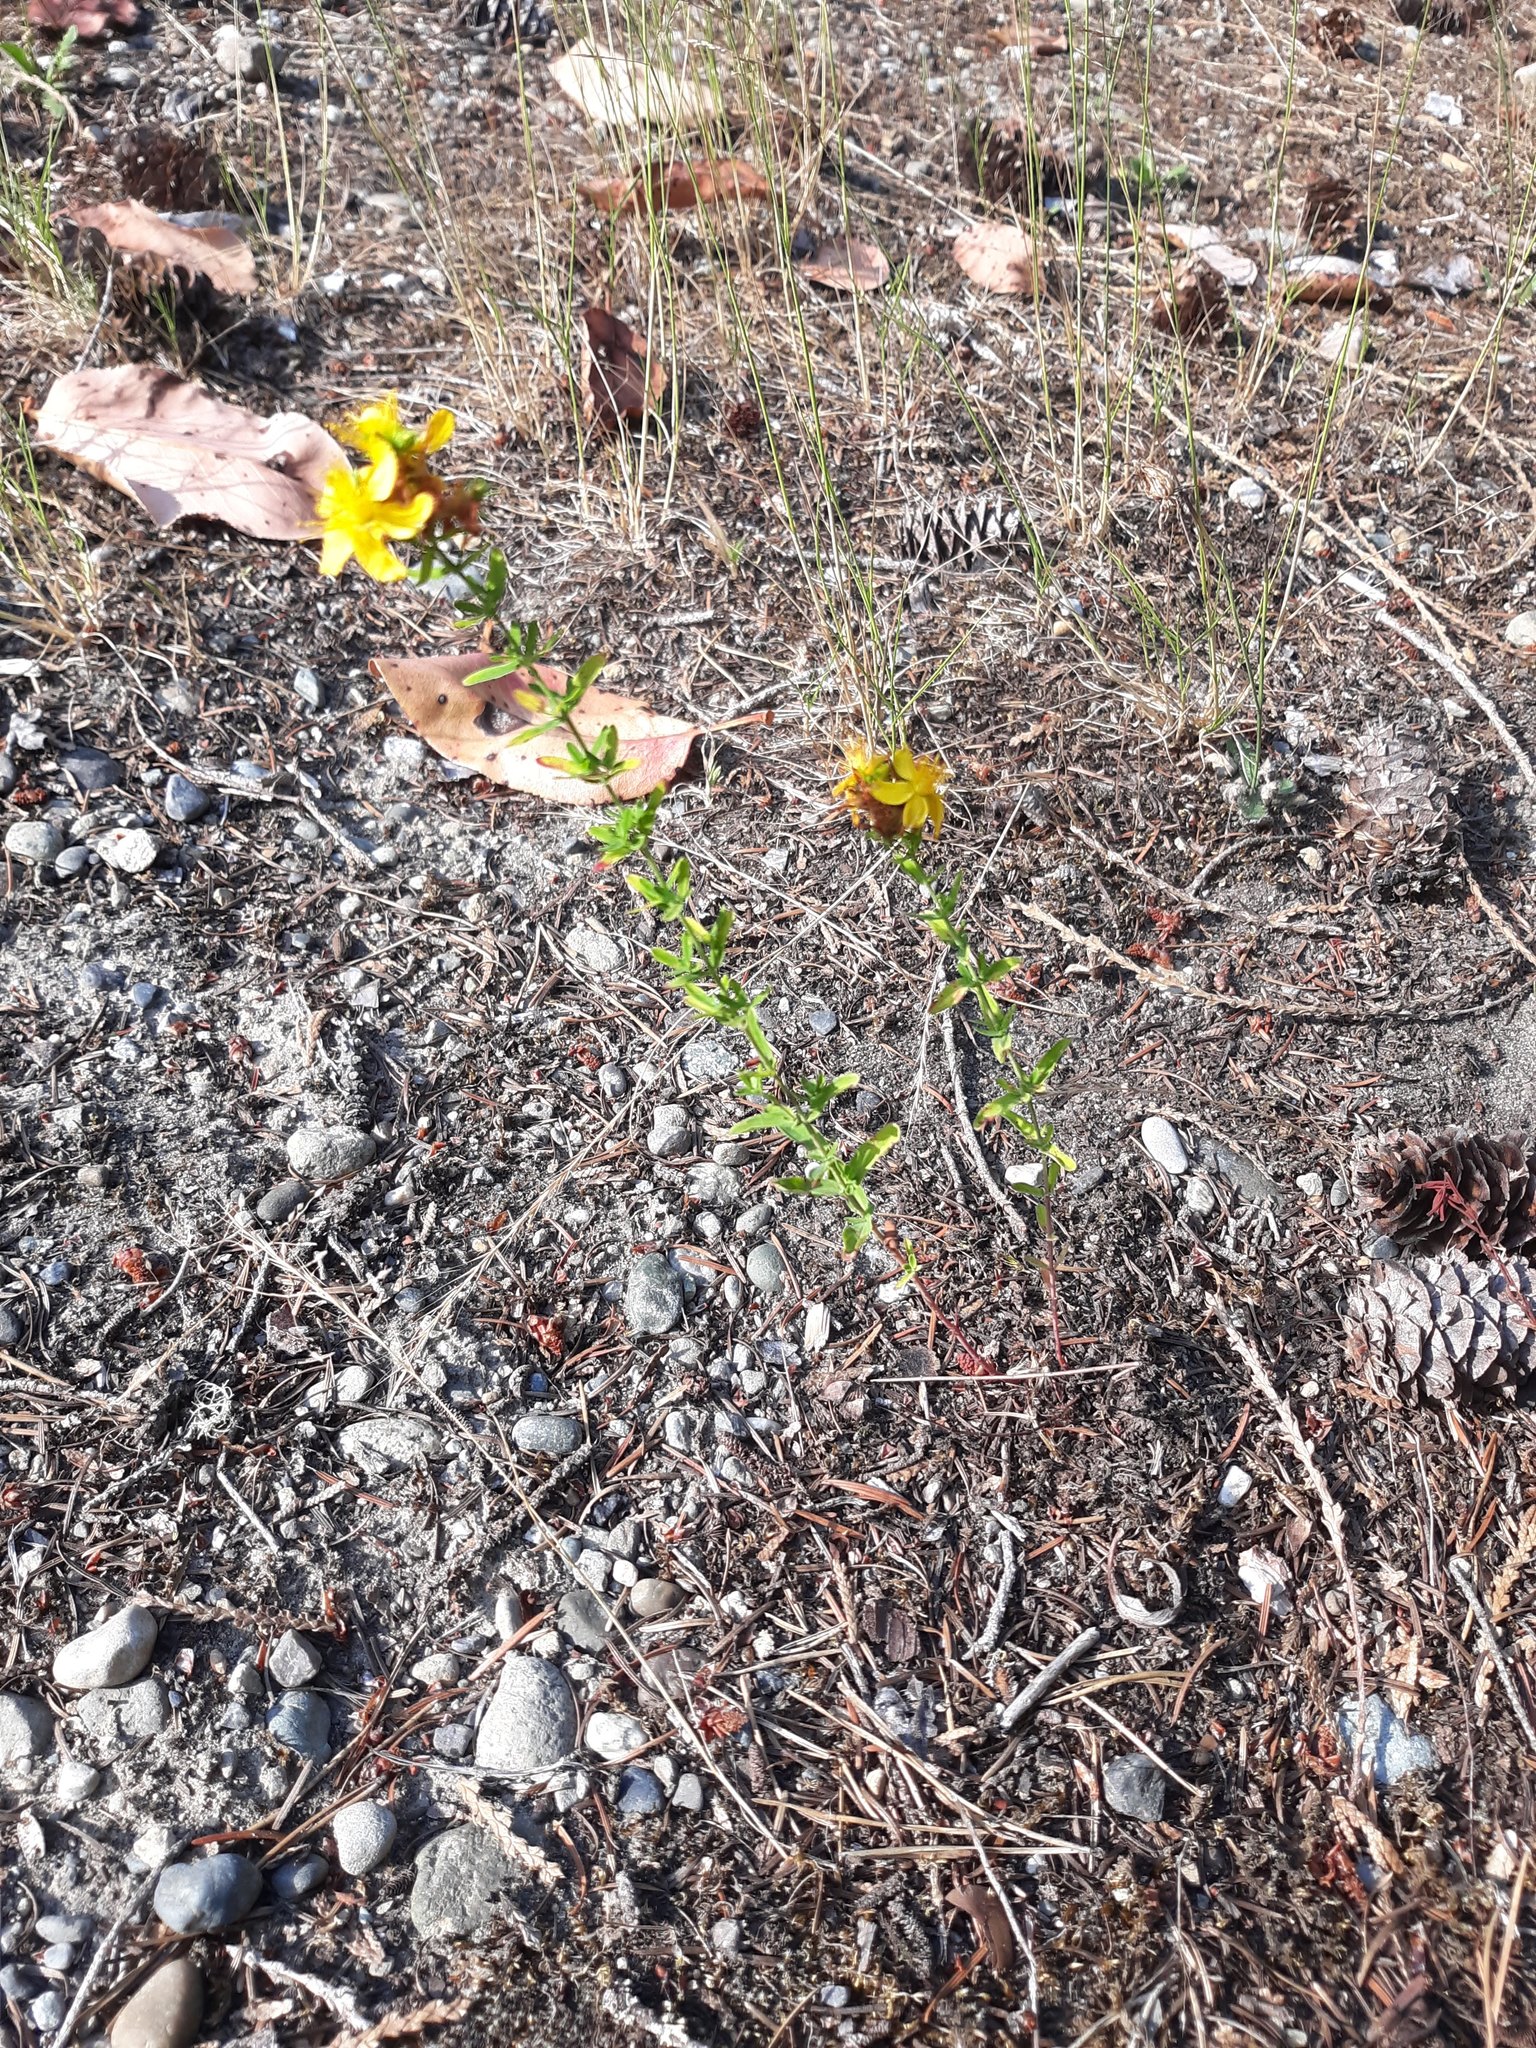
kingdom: Plantae
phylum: Tracheophyta
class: Magnoliopsida
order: Malpighiales
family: Hypericaceae
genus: Hypericum
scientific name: Hypericum perforatum
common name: Common st. johnswort
